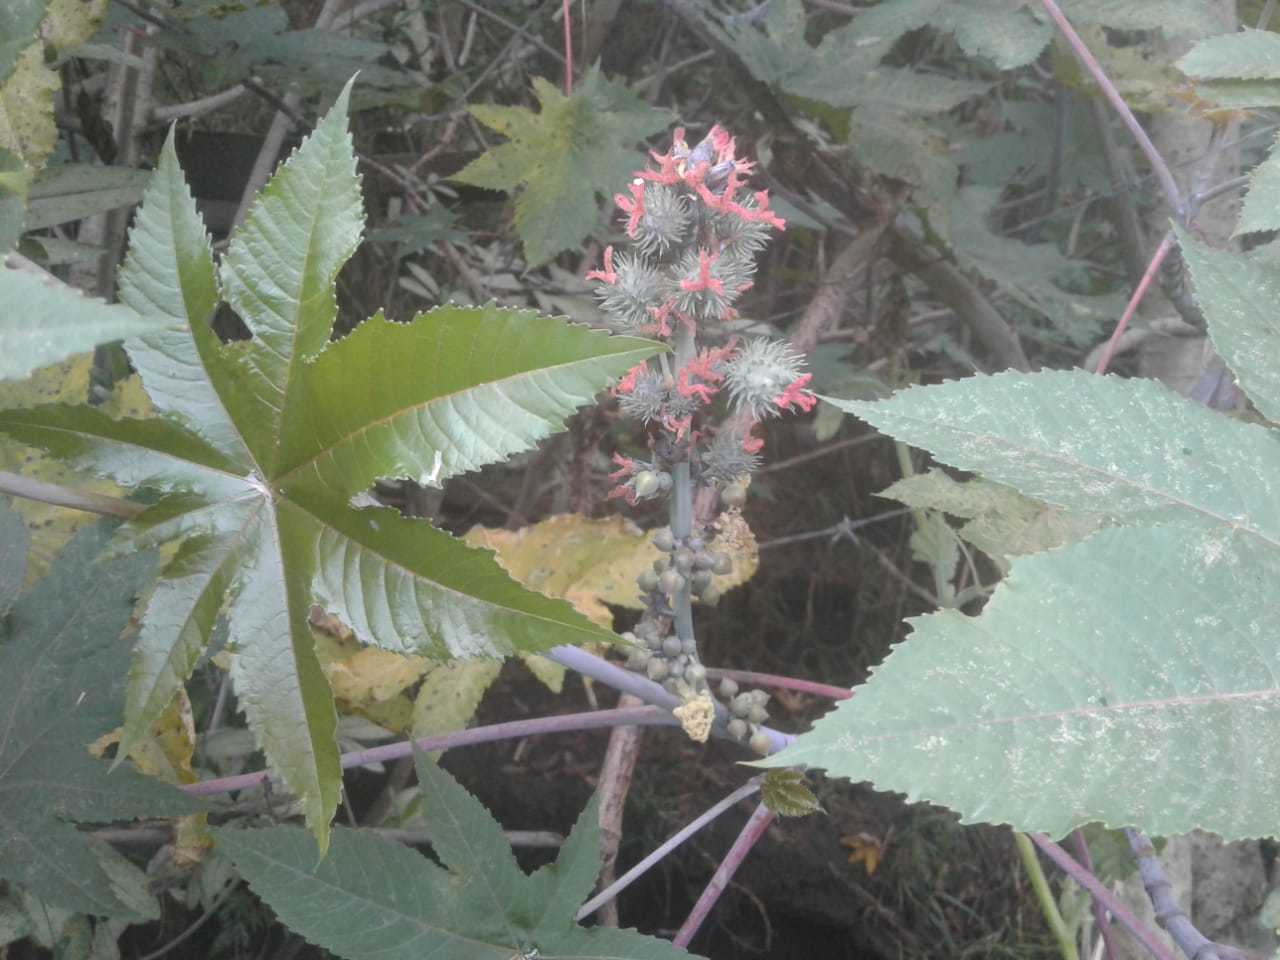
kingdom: Plantae
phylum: Tracheophyta
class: Magnoliopsida
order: Malpighiales
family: Euphorbiaceae
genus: Ricinus
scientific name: Ricinus communis
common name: Castor-oil-plant
